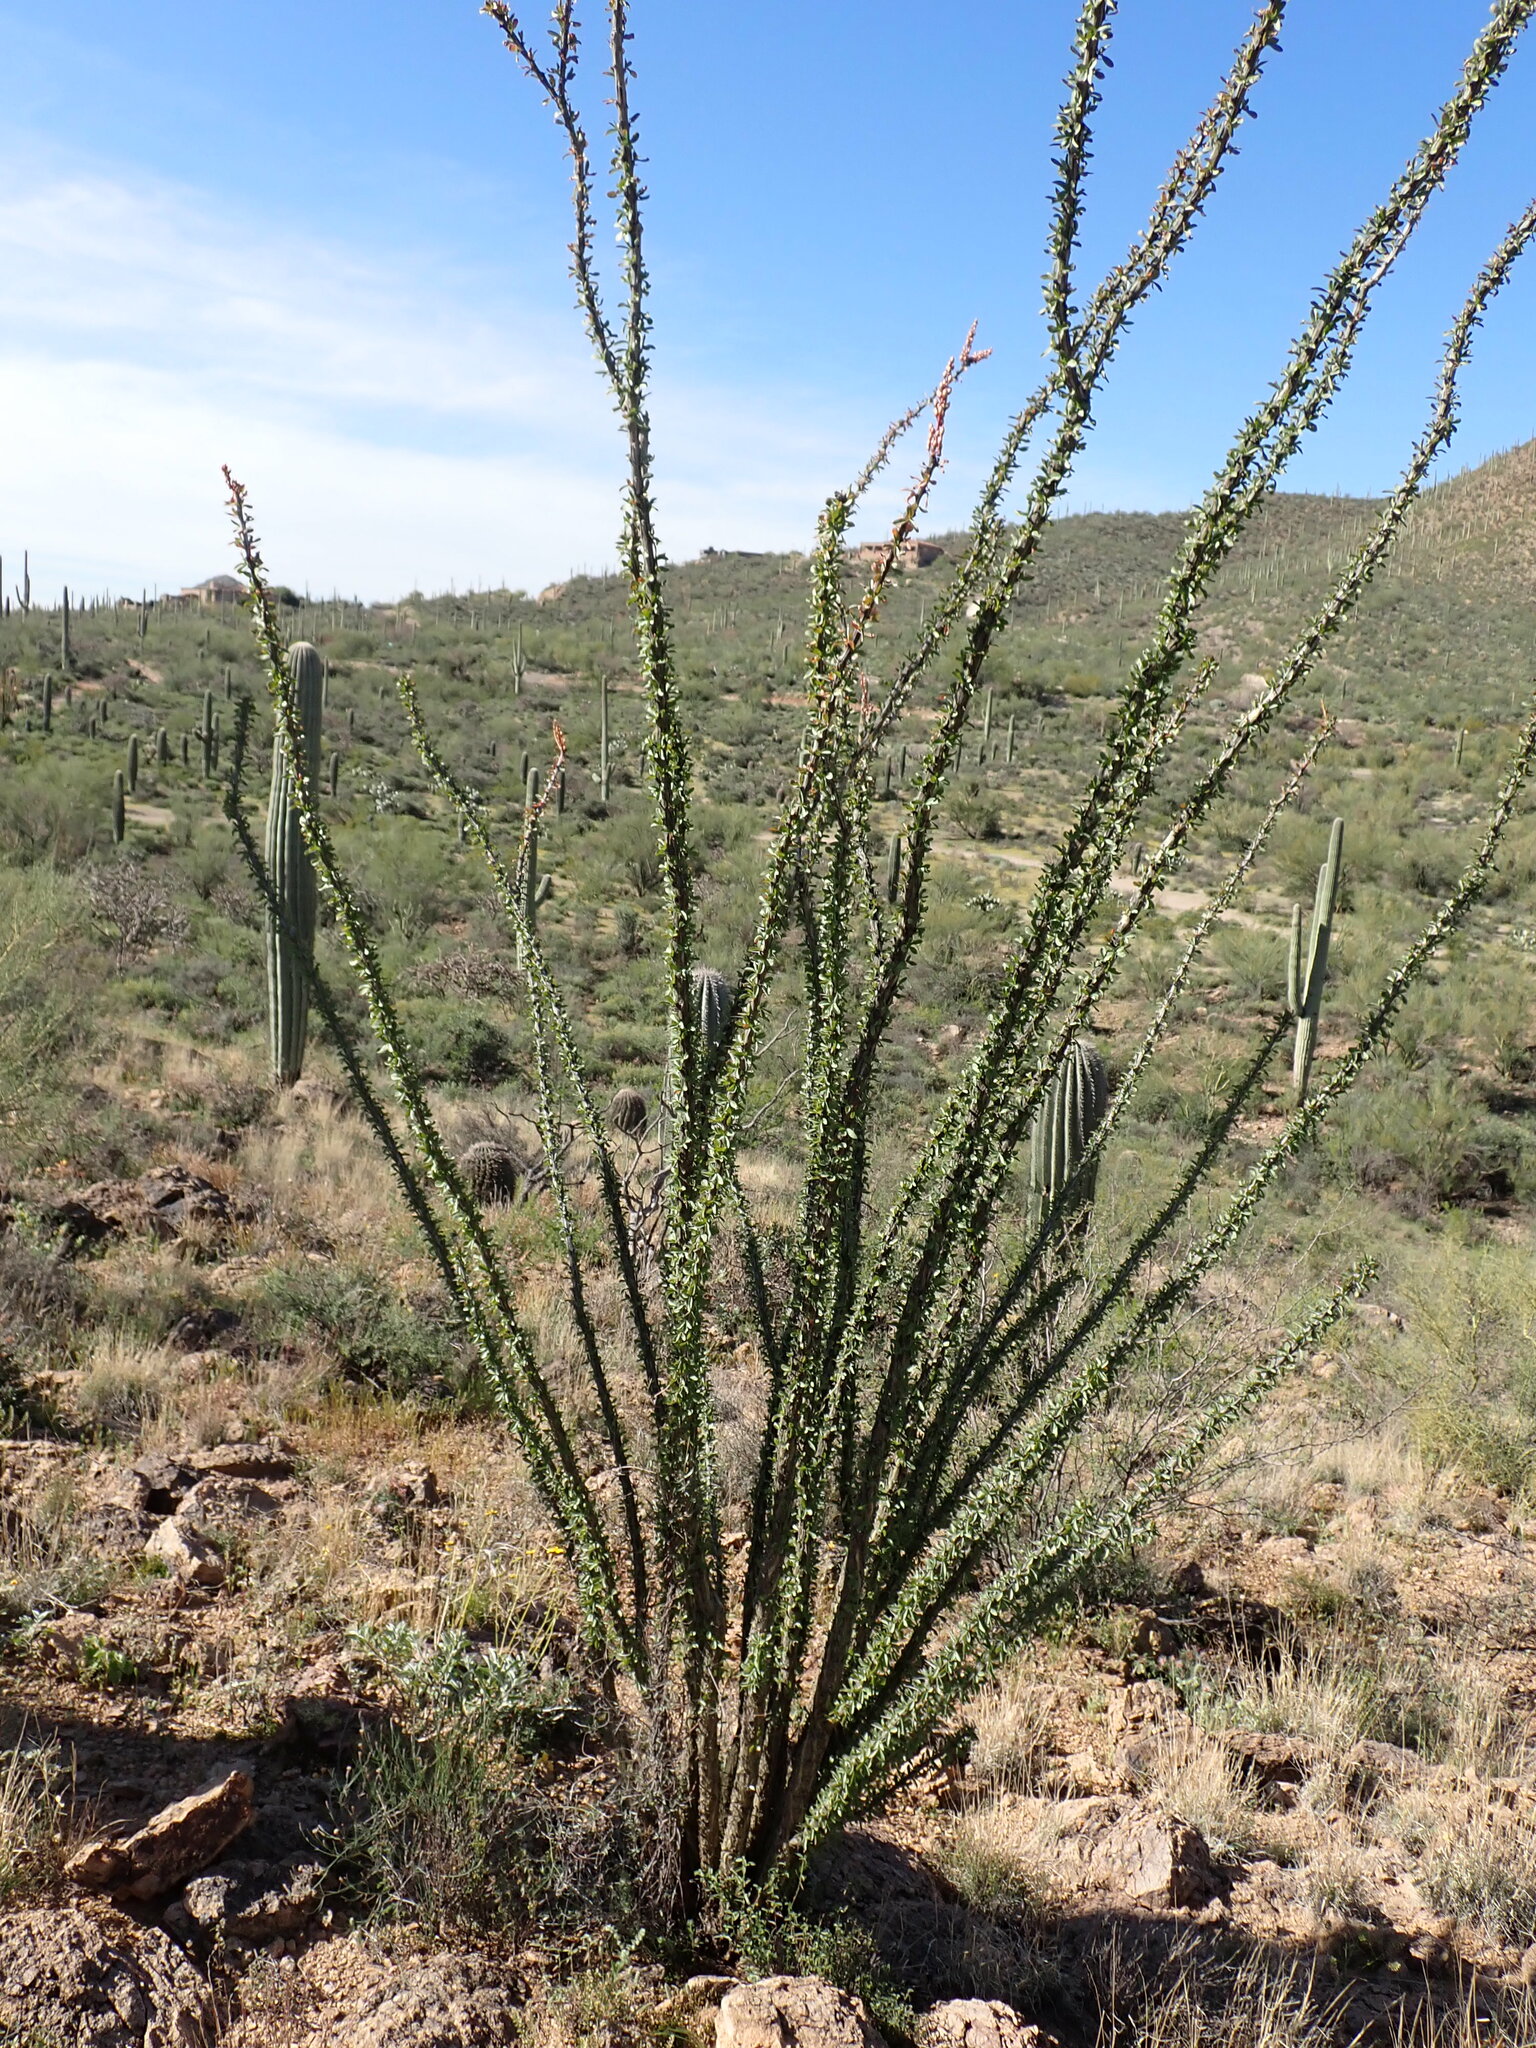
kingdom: Plantae
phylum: Tracheophyta
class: Magnoliopsida
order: Ericales
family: Fouquieriaceae
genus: Fouquieria
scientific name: Fouquieria splendens
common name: Vine-cactus
